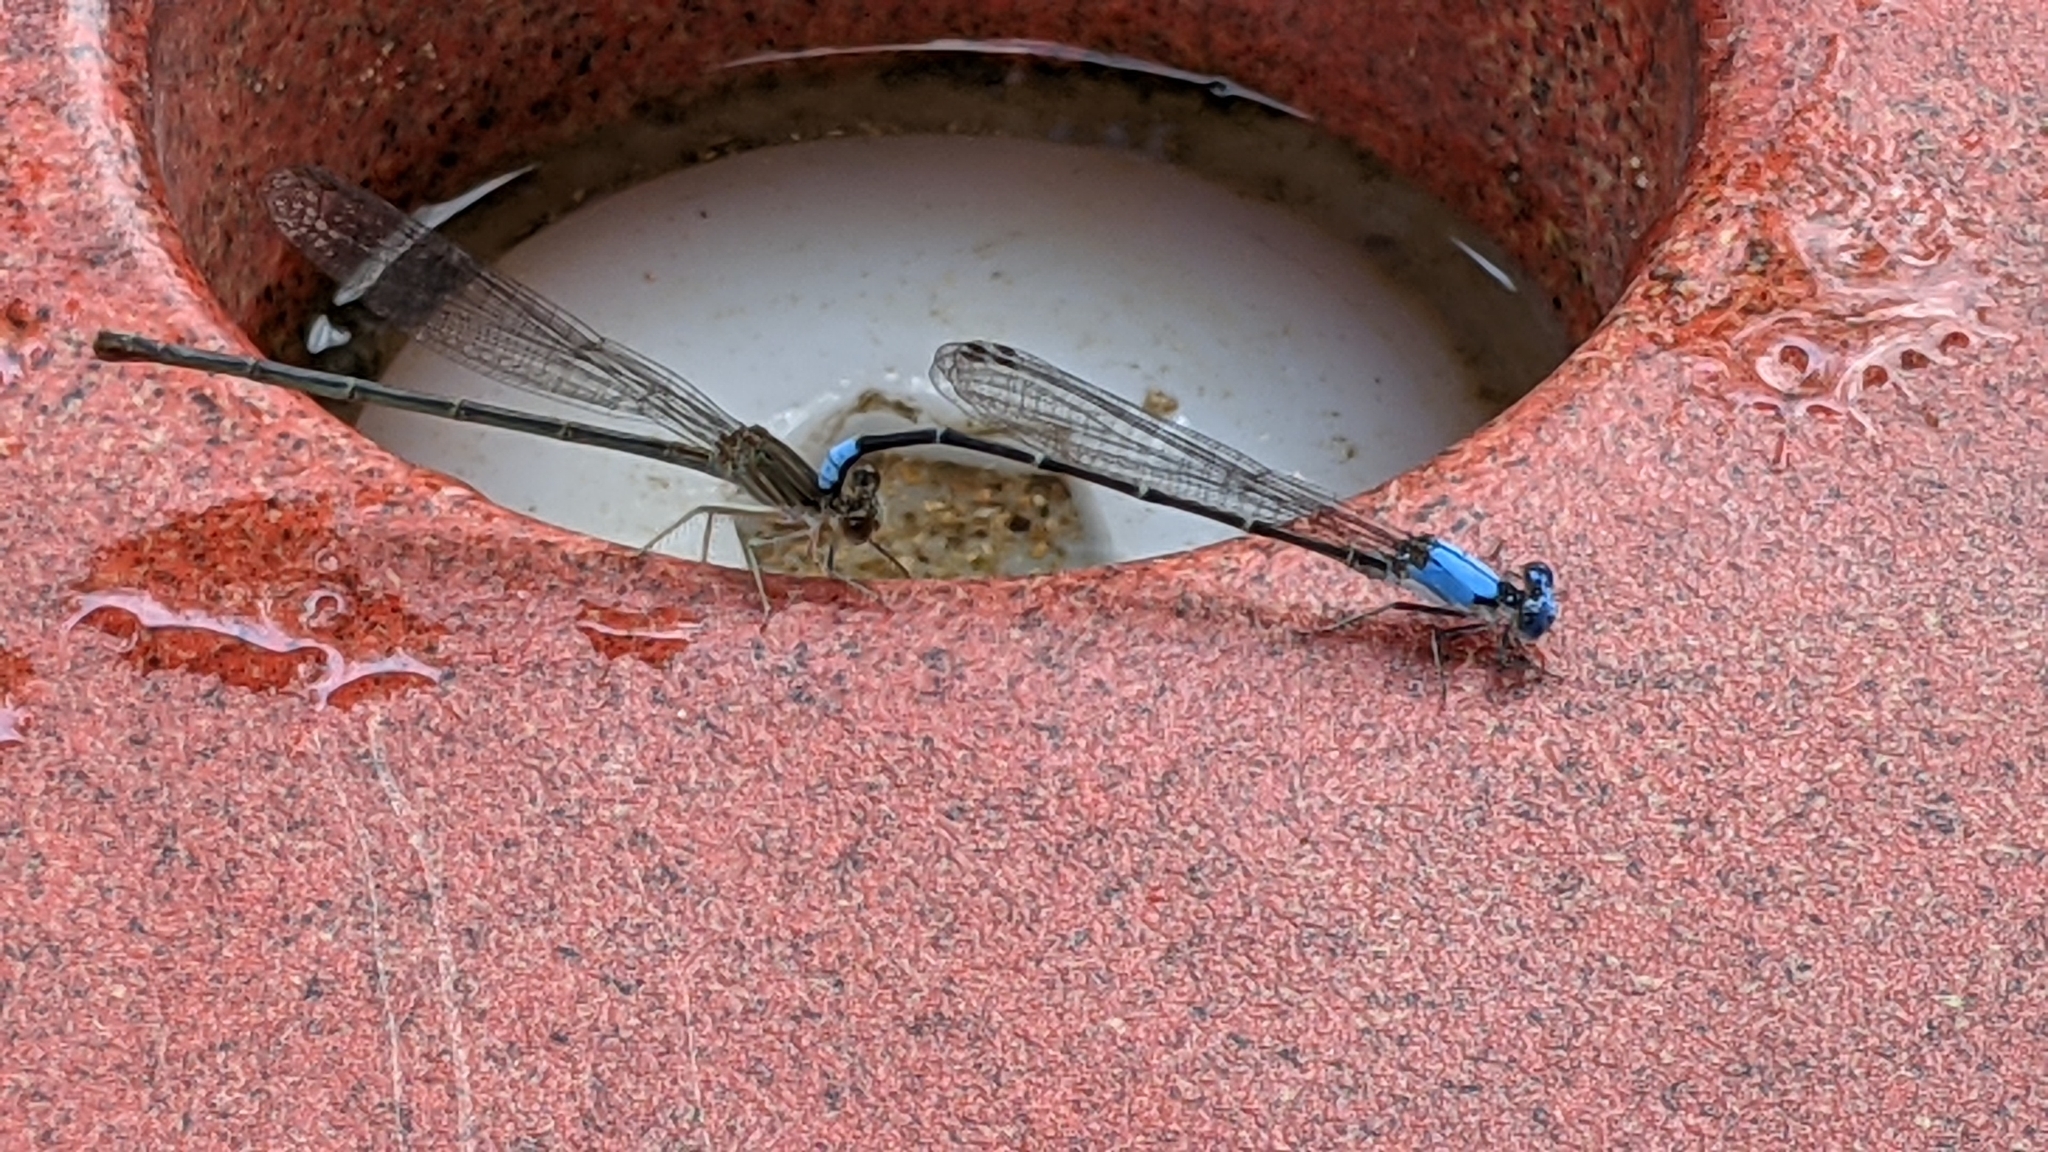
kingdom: Animalia
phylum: Arthropoda
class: Insecta
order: Odonata
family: Coenagrionidae
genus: Argia
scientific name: Argia apicalis
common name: Blue-fronted dancer
